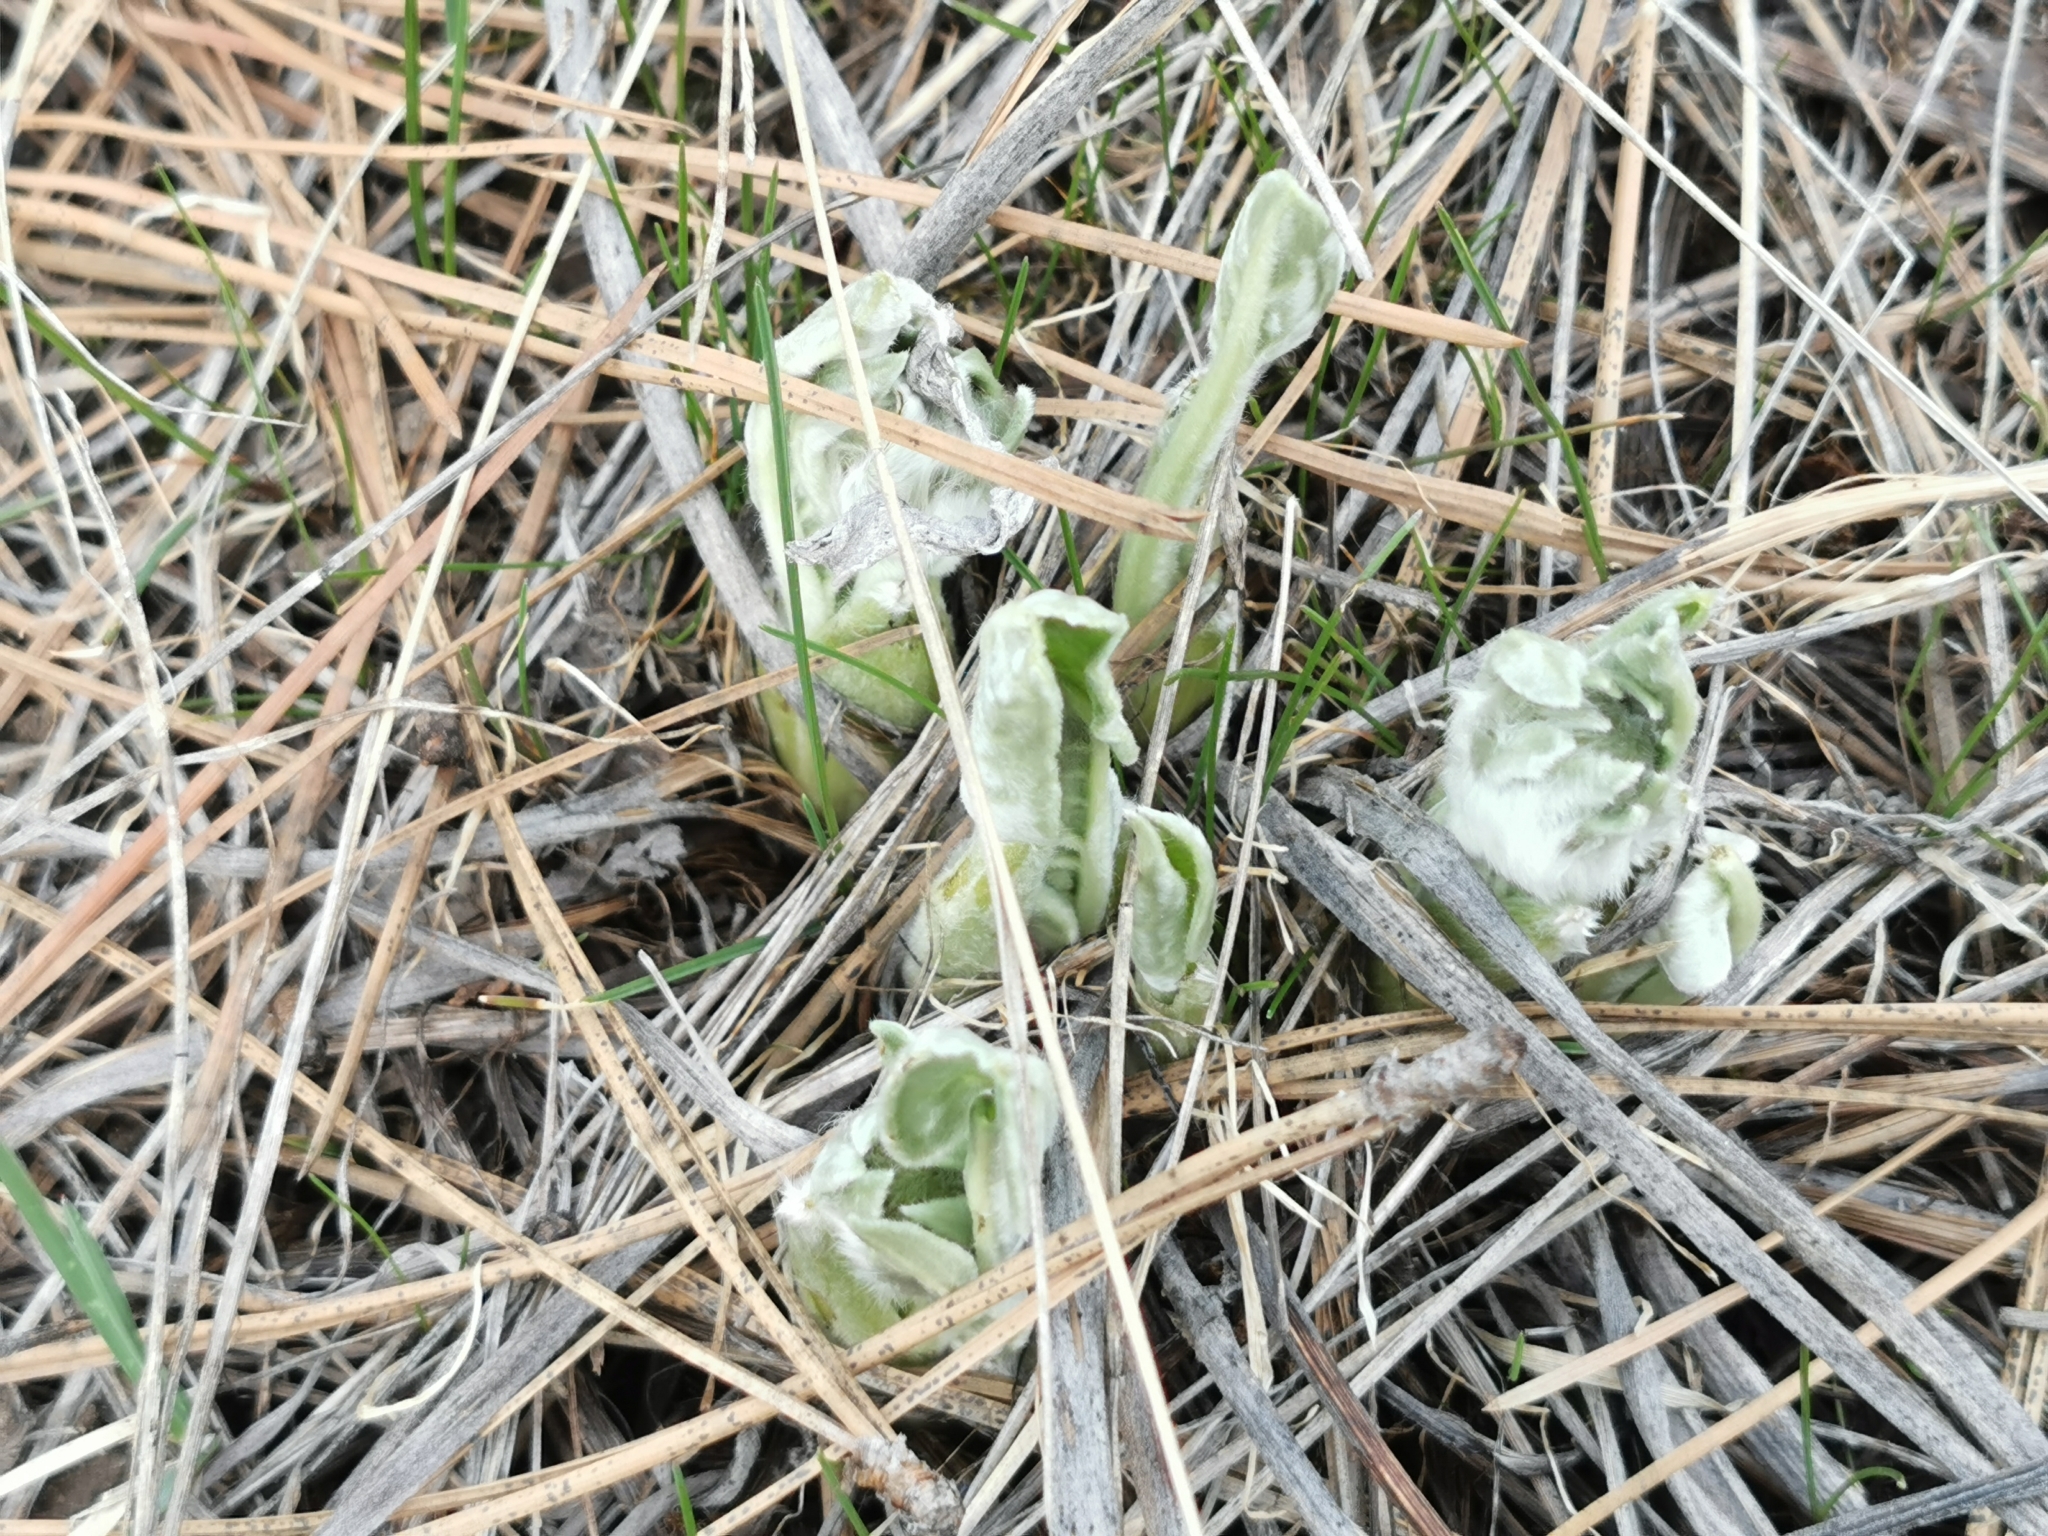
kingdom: Plantae
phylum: Tracheophyta
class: Magnoliopsida
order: Asterales
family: Asteraceae
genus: Wyethia
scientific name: Wyethia sagittata
